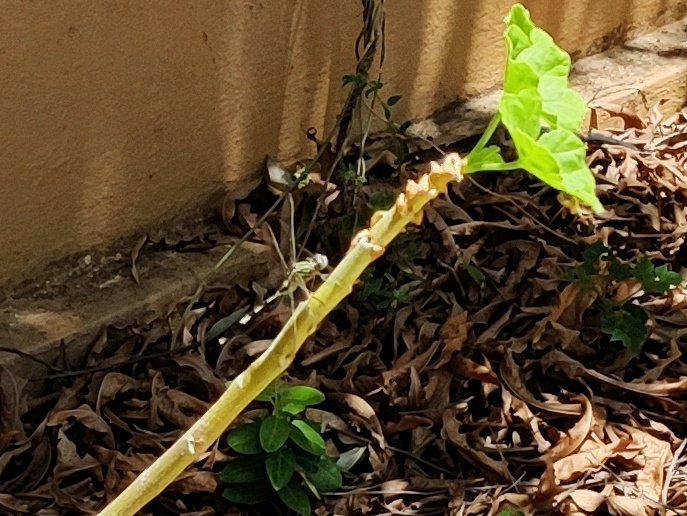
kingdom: Animalia
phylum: Arthropoda
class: Insecta
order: Odonata
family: Libellulidae
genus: Orthetrum
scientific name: Orthetrum sabina
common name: Slender skimmer
